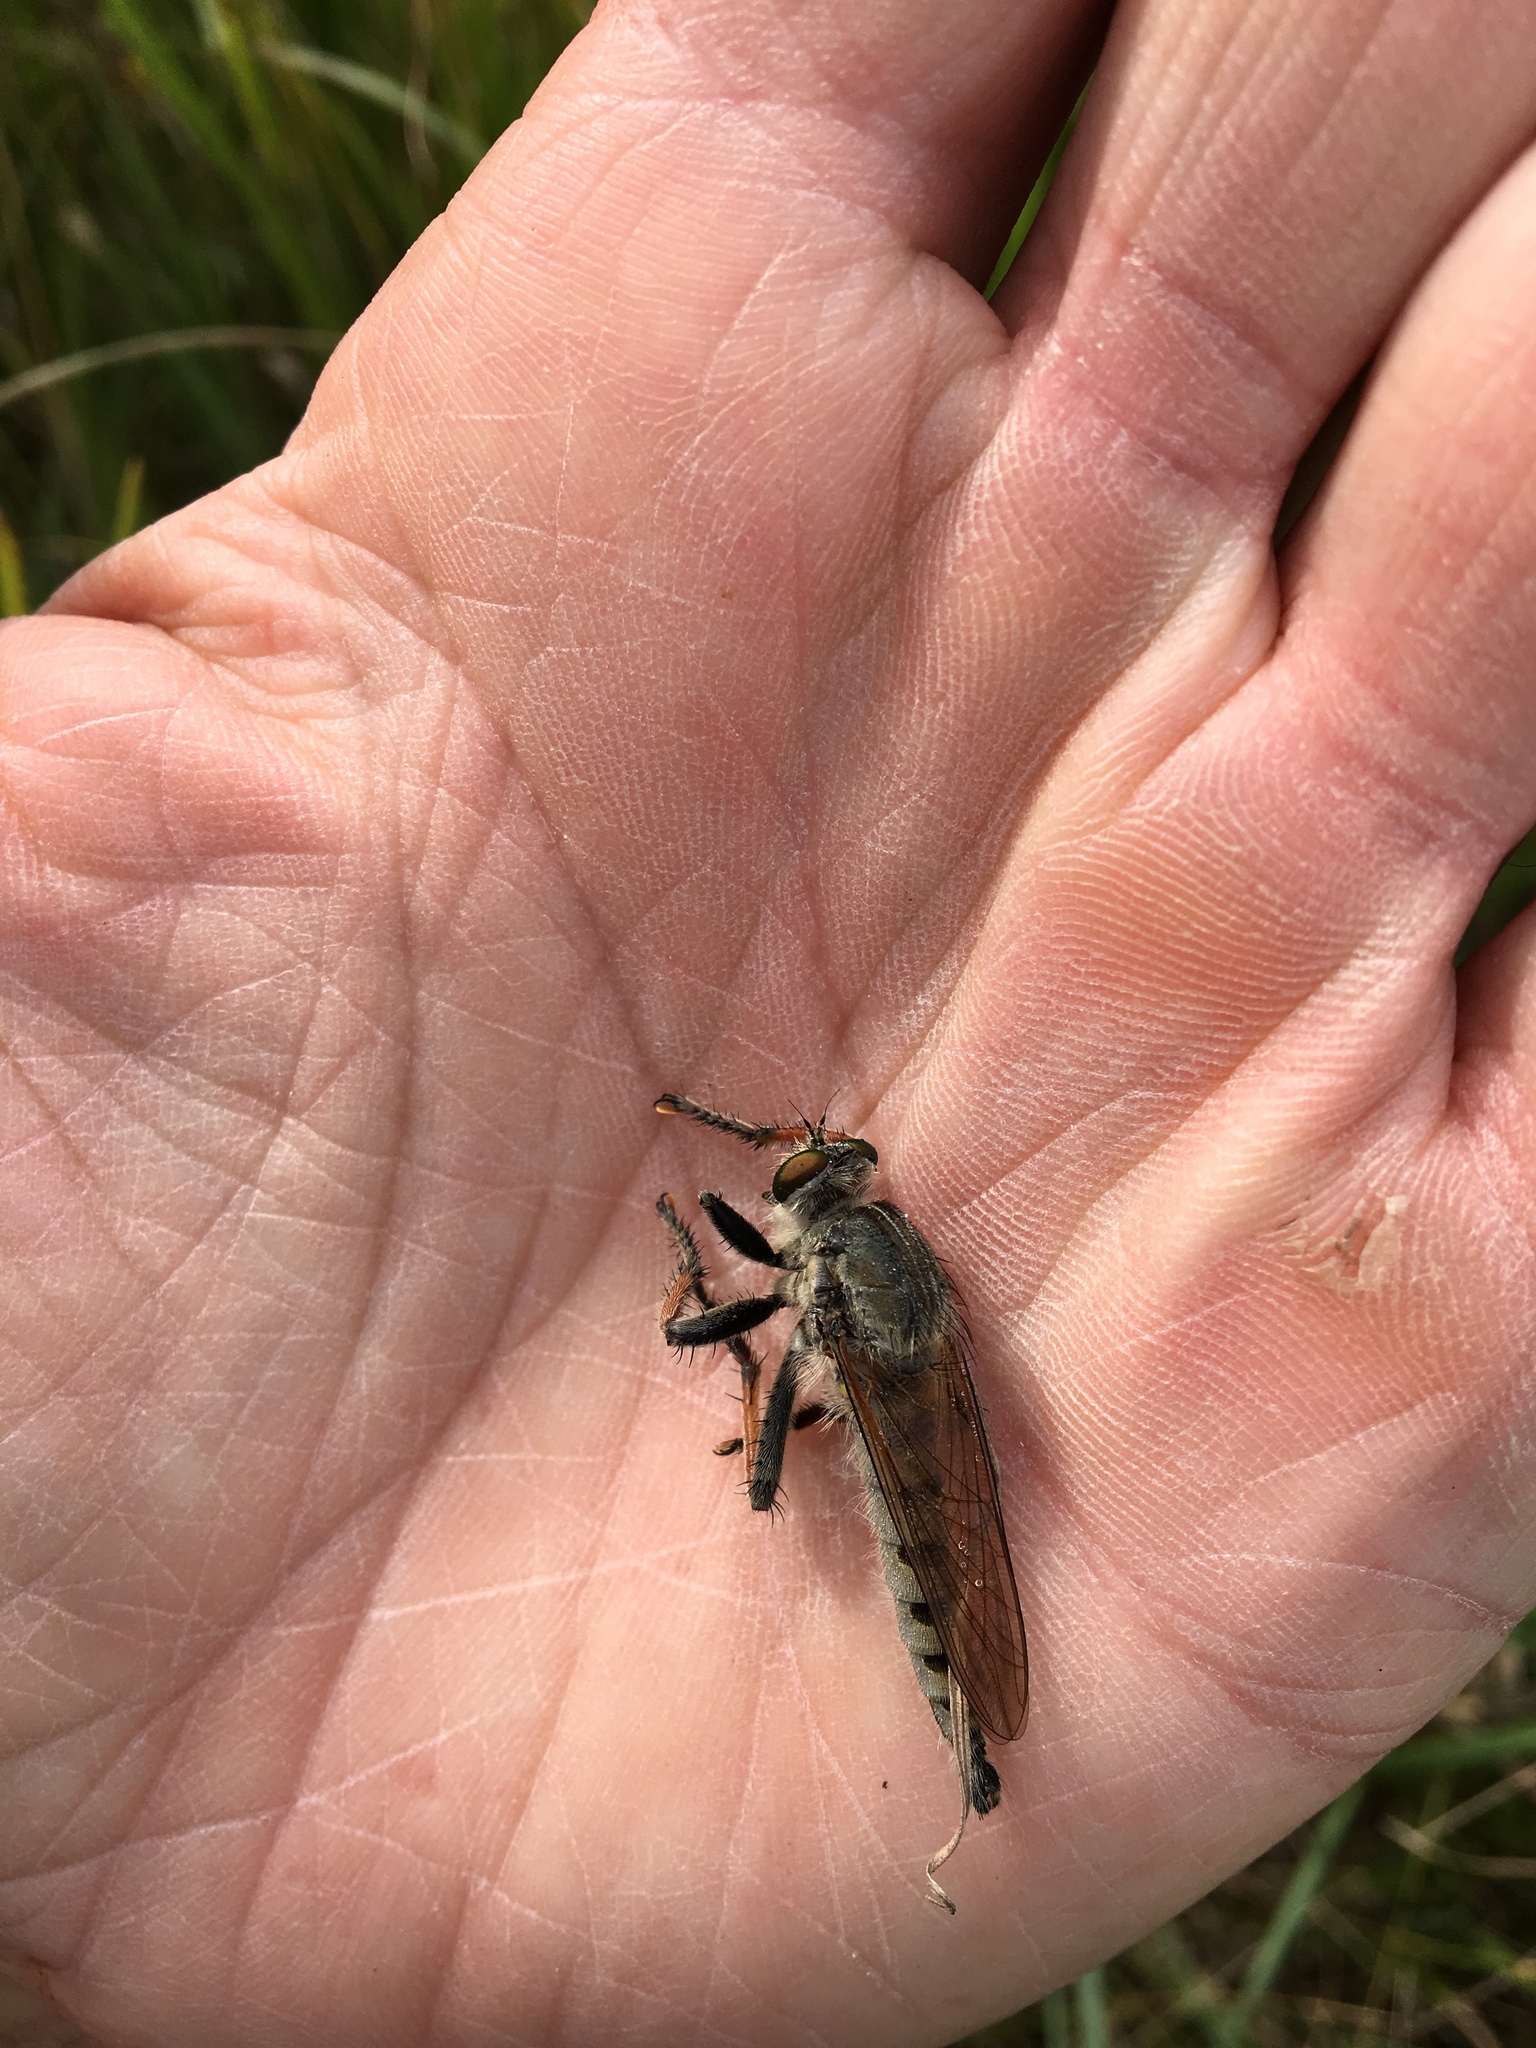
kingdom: Animalia
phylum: Arthropoda
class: Insecta
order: Diptera
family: Asilidae
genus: Promachus
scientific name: Promachus vertebratus
